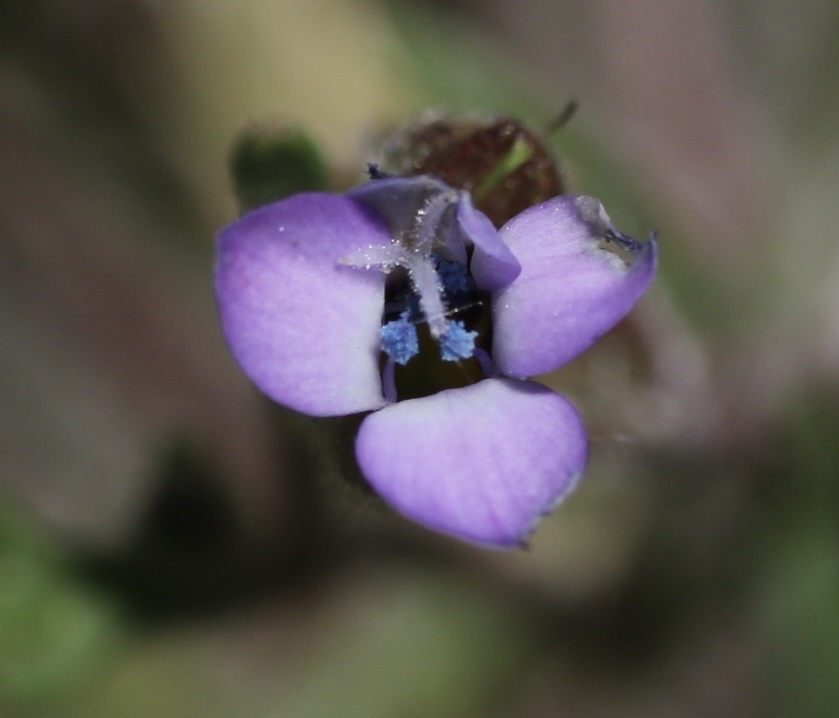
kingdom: Plantae
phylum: Tracheophyta
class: Magnoliopsida
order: Ericales
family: Polemoniaceae
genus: Gilia
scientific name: Gilia millefoliata
